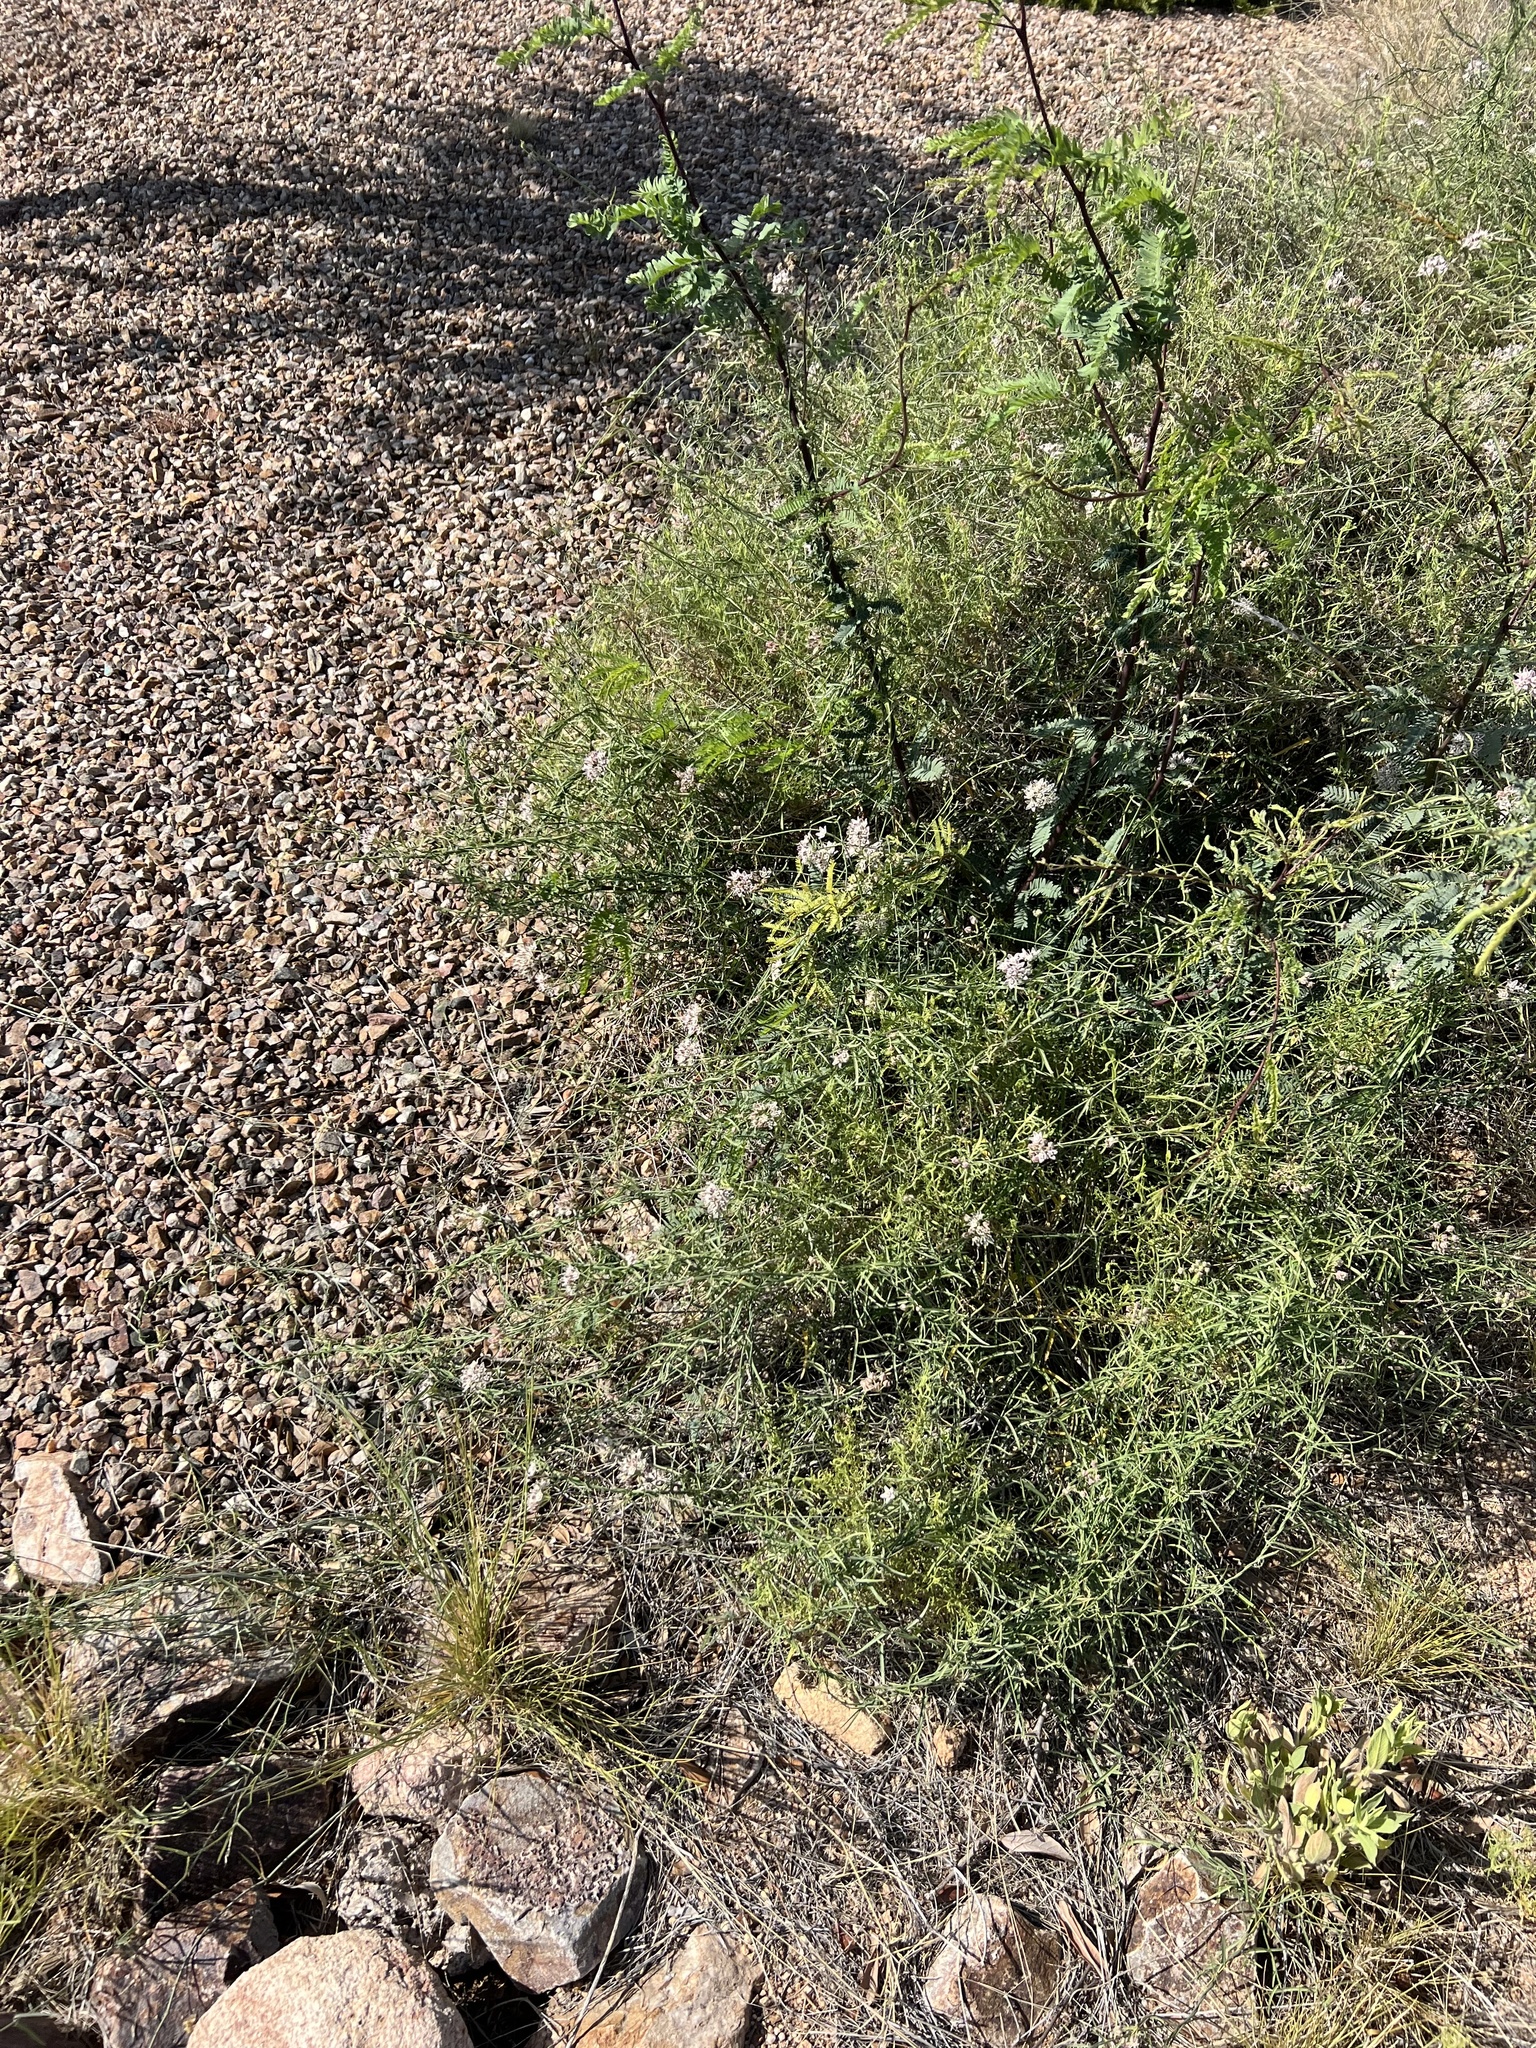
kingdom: Plantae
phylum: Tracheophyta
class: Magnoliopsida
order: Gentianales
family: Apocynaceae
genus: Funastrum
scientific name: Funastrum heterophyllum
